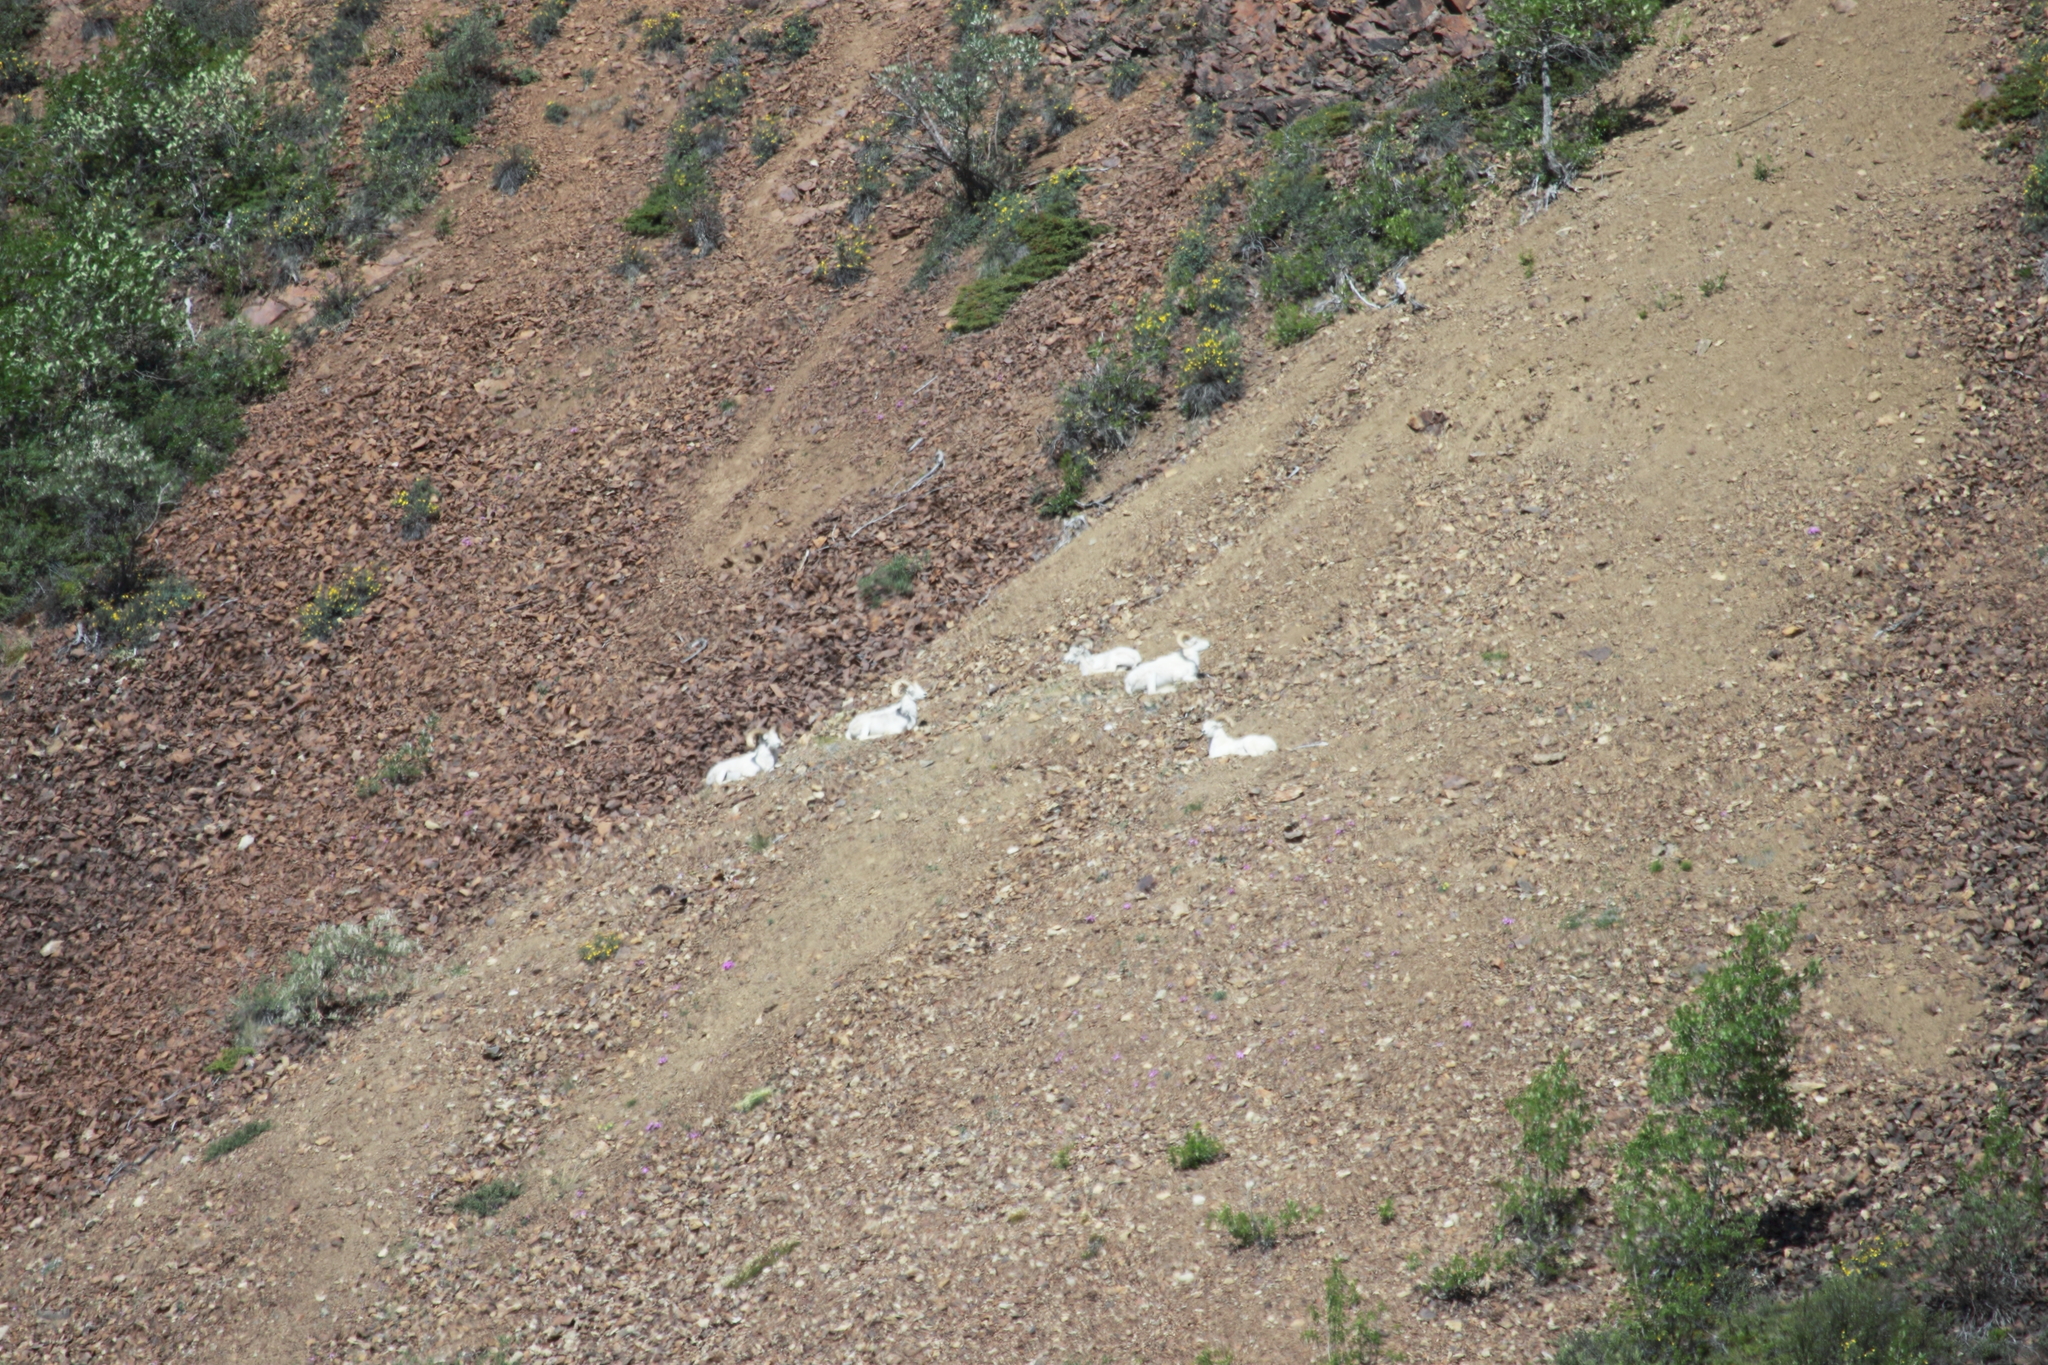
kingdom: Animalia
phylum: Chordata
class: Mammalia
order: Artiodactyla
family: Bovidae
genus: Ovis
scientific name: Ovis dalli
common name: Dall's sheep
